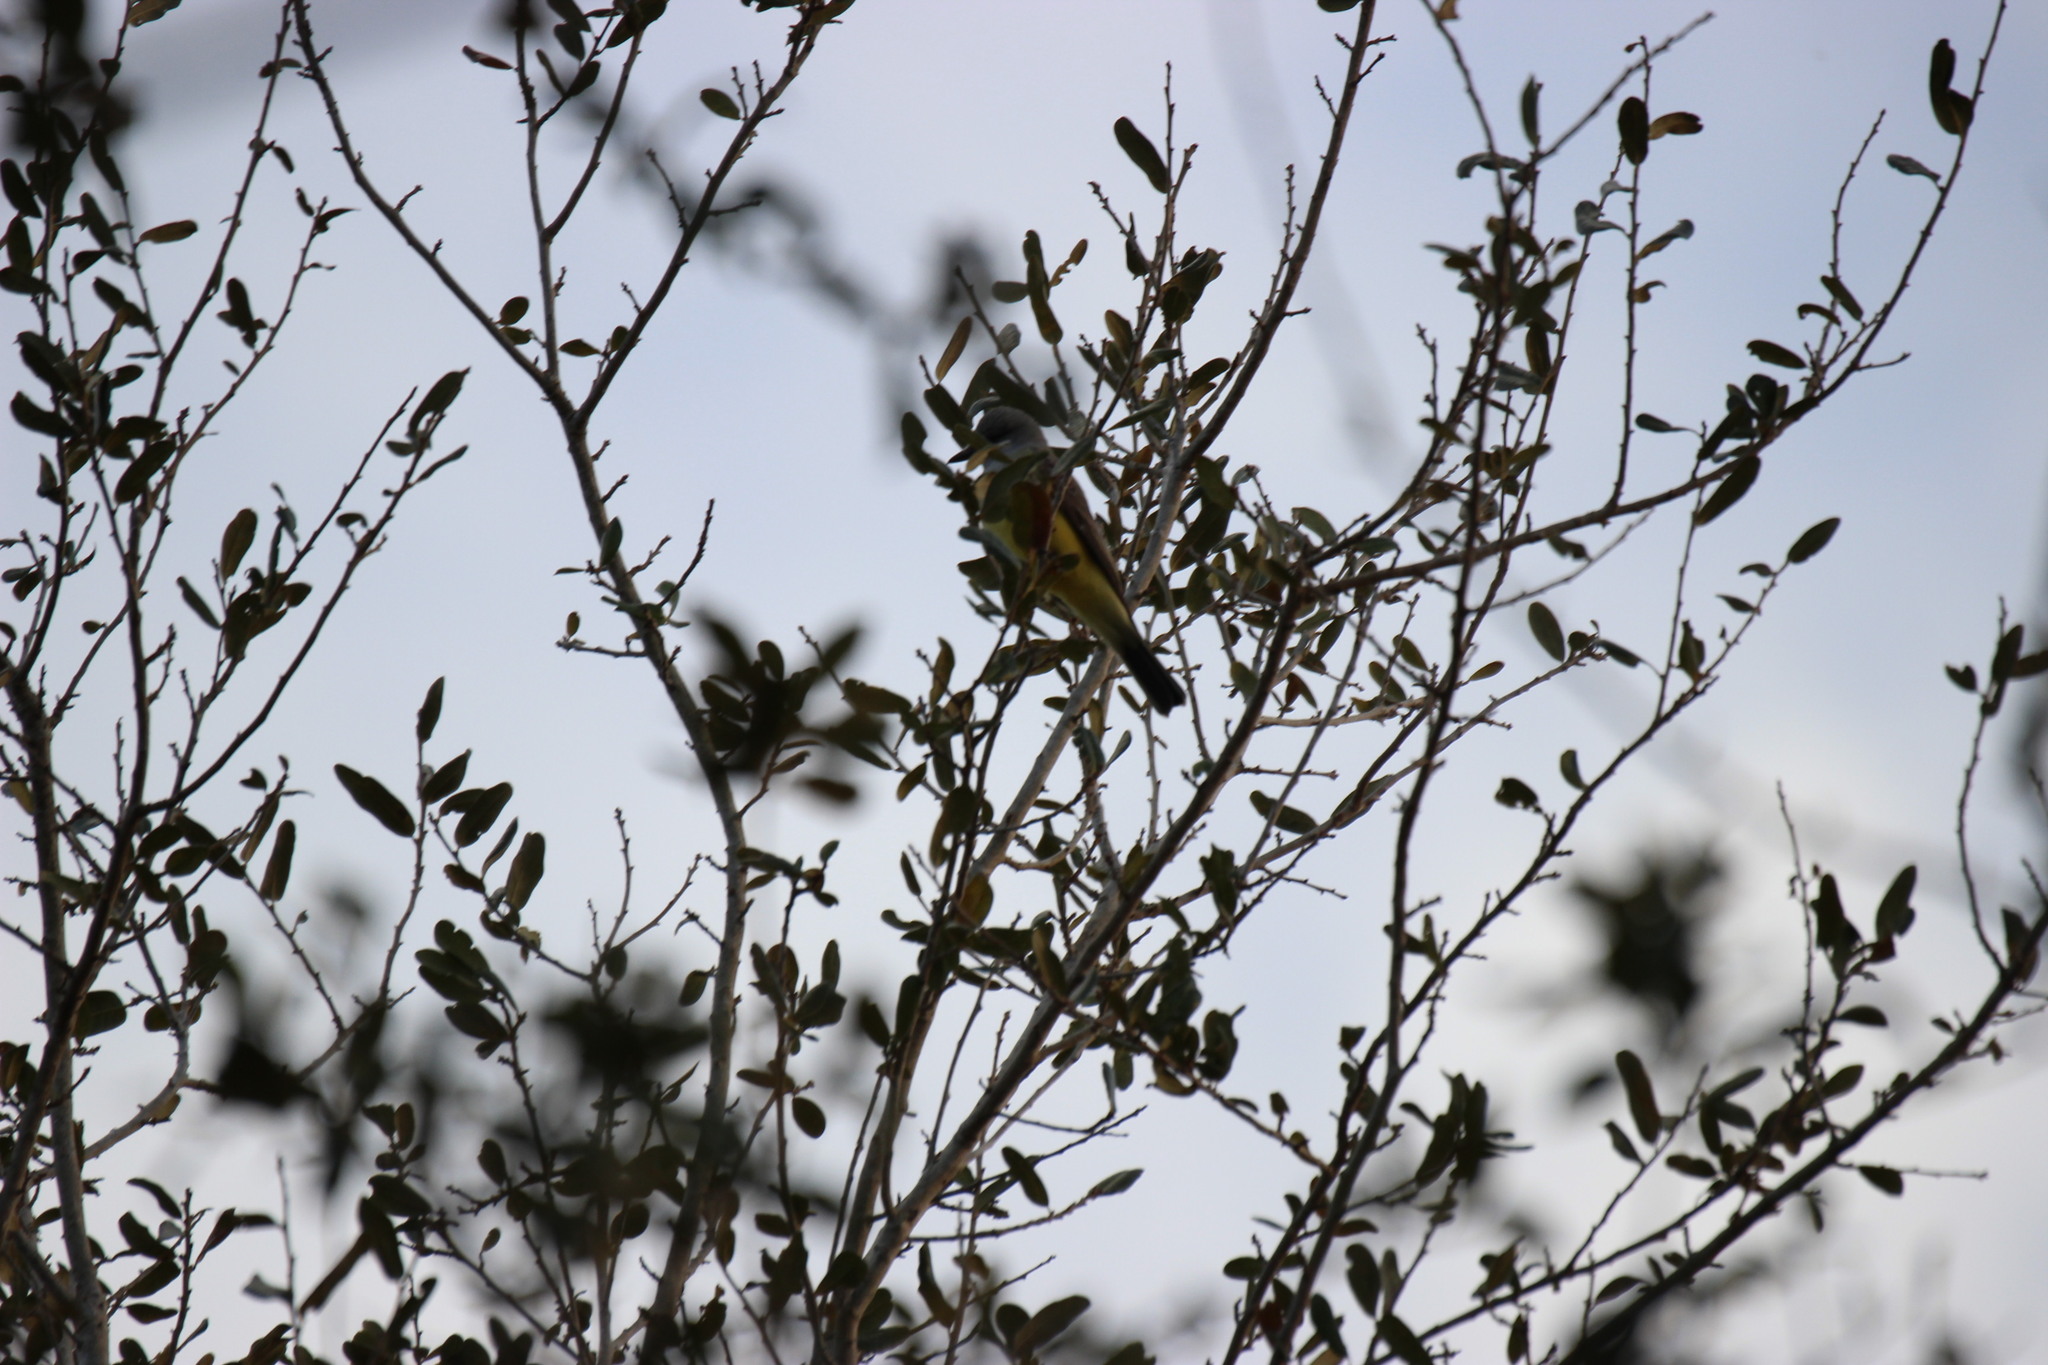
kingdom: Animalia
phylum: Chordata
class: Aves
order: Passeriformes
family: Tyrannidae
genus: Tyrannus
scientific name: Tyrannus verticalis
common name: Western kingbird
